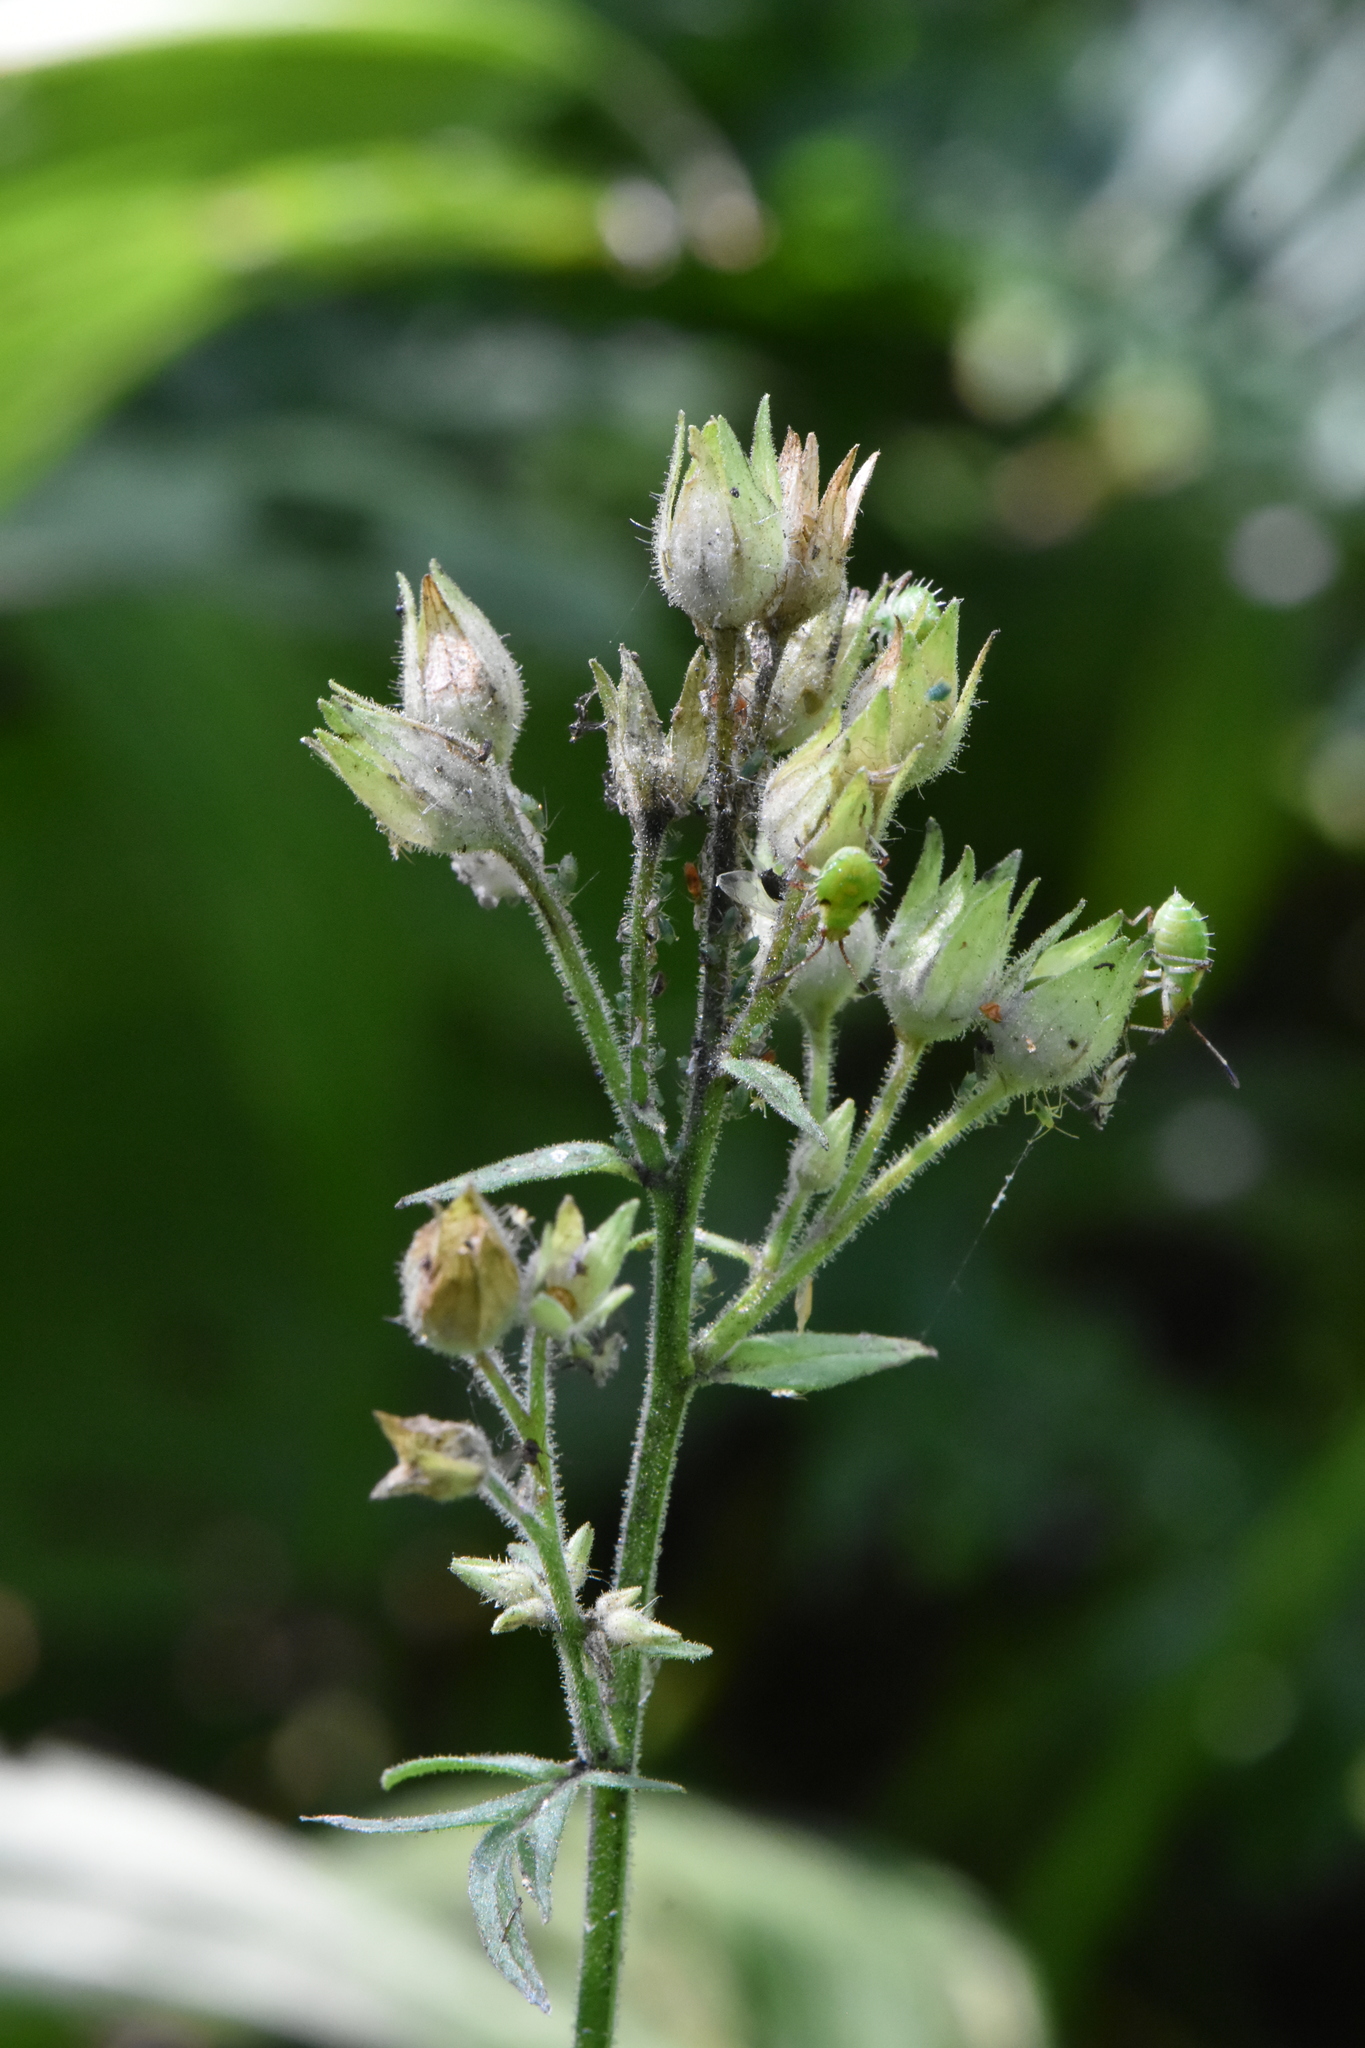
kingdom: Plantae
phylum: Tracheophyta
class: Magnoliopsida
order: Ericales
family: Polemoniaceae
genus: Polemonium
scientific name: Polemonium caeruleum
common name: Jacob's-ladder
